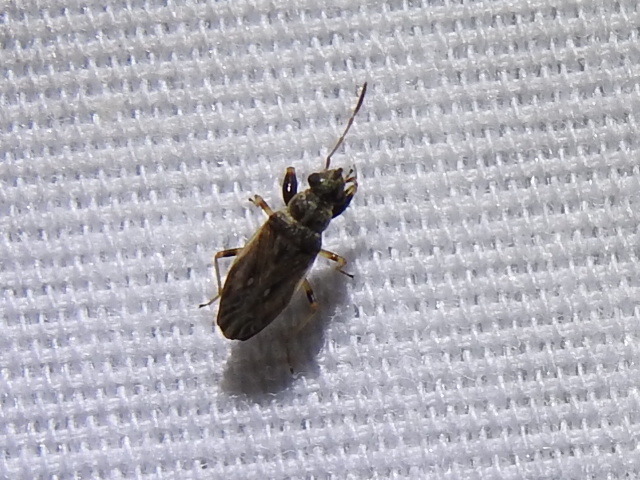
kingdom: Animalia
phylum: Arthropoda
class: Insecta
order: Hemiptera
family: Rhyparochromidae
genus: Pseudopachybrachius
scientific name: Pseudopachybrachius basalis
